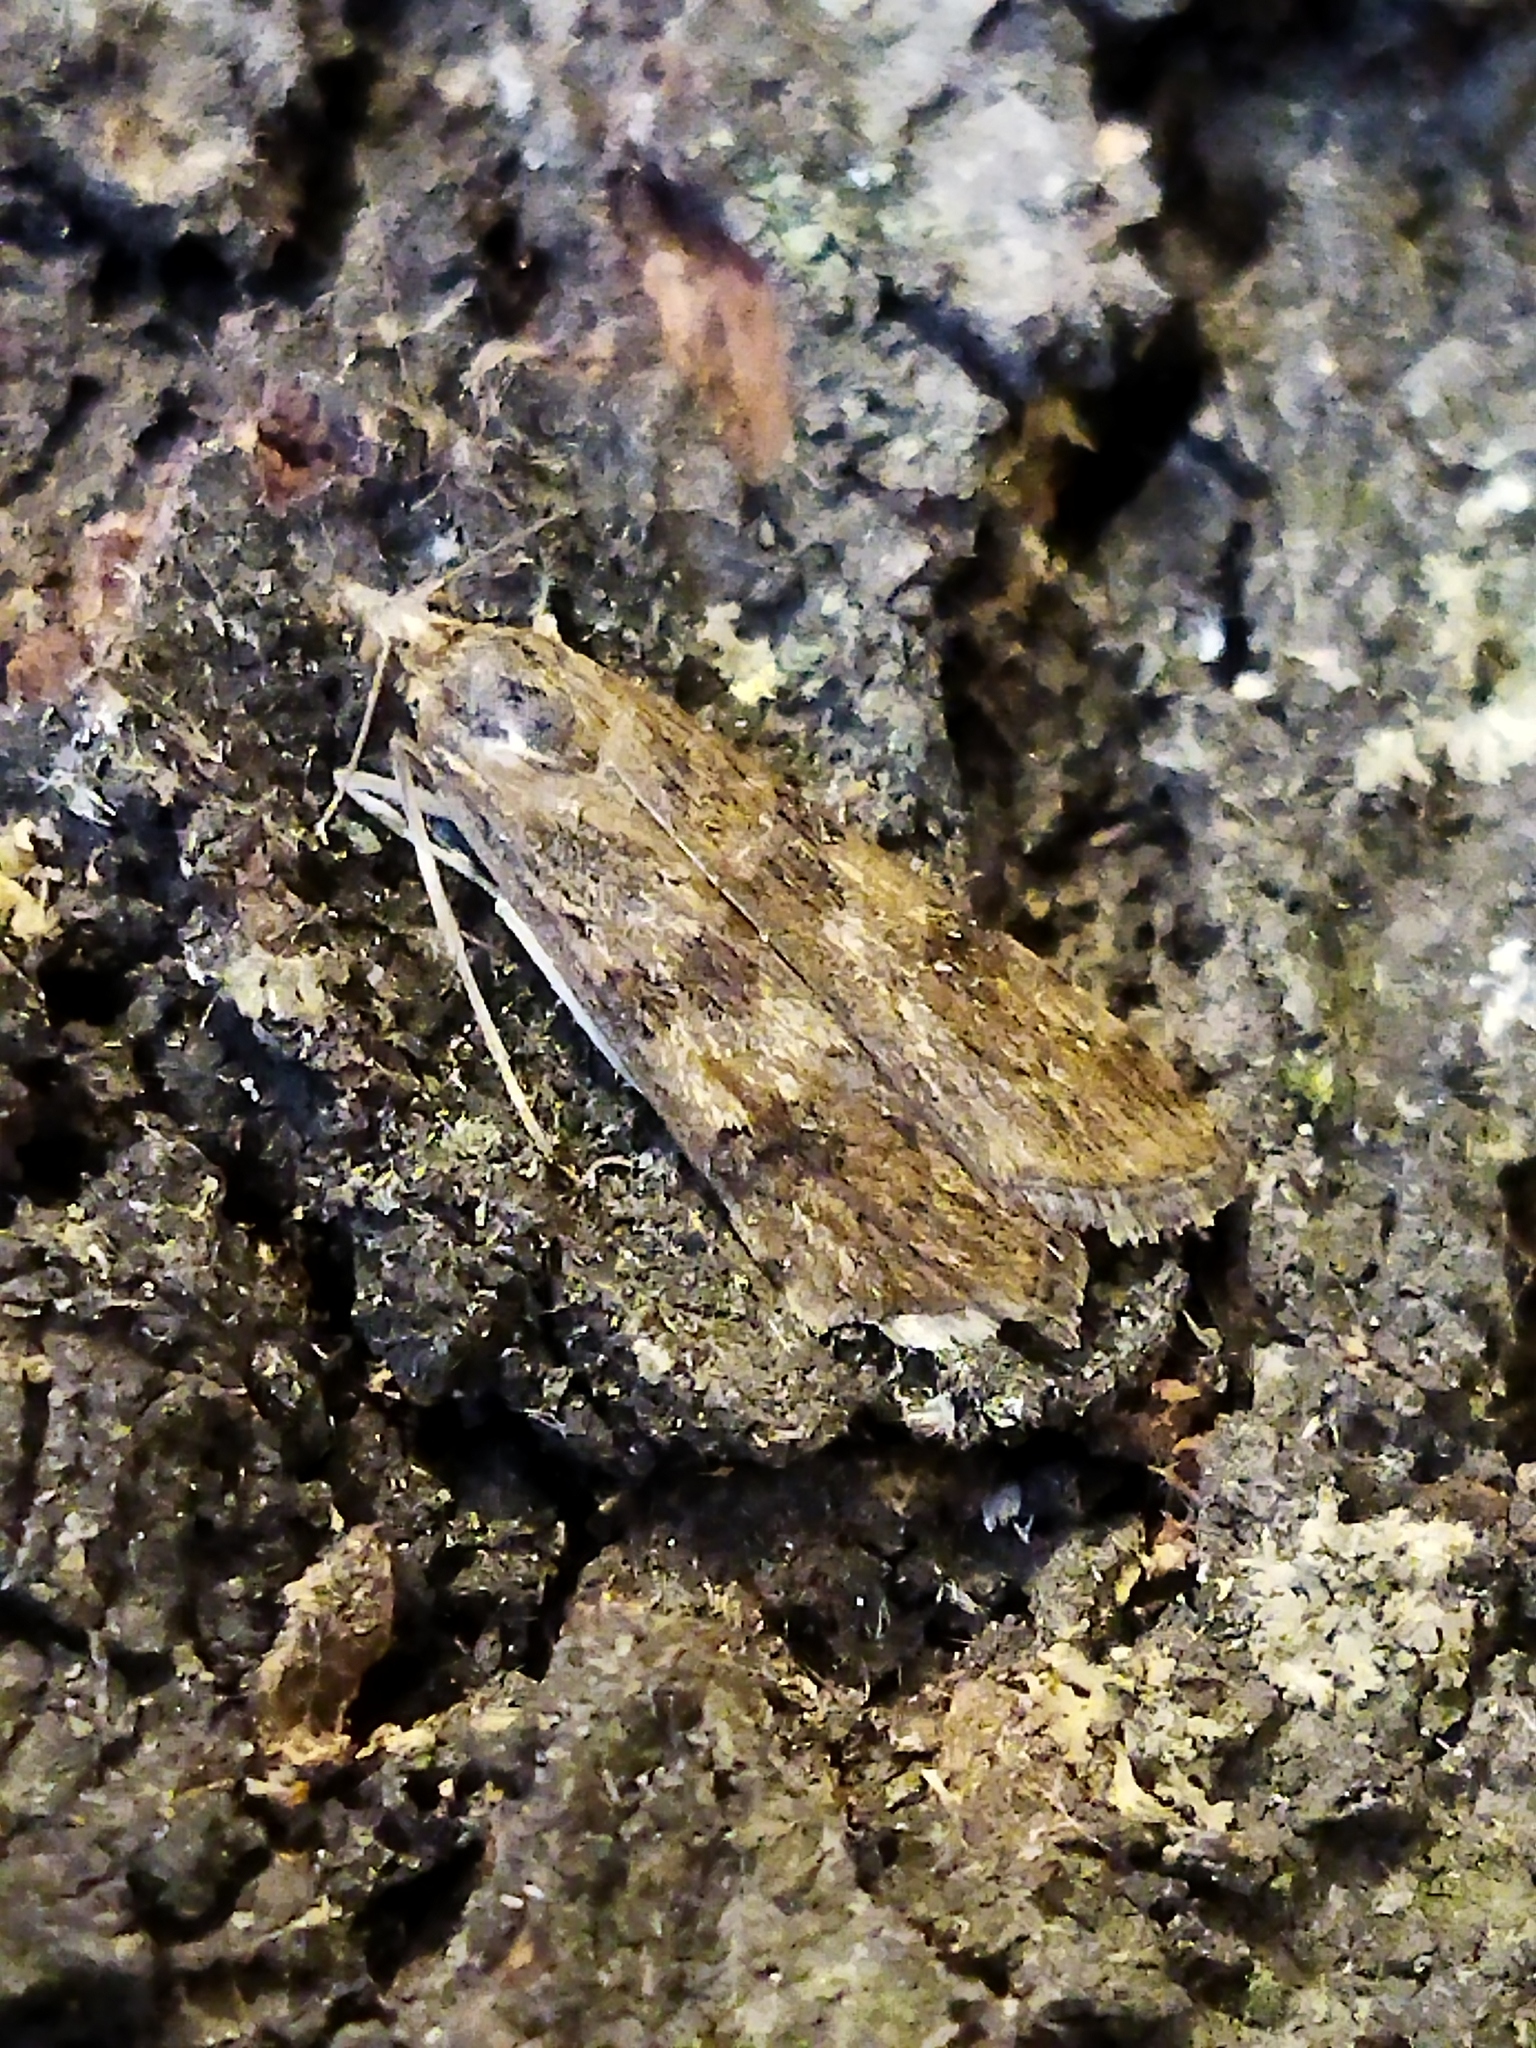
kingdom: Animalia
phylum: Arthropoda
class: Insecta
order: Lepidoptera
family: Crambidae
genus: Nomophila
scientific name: Nomophila noctuella
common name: Rush veneer
